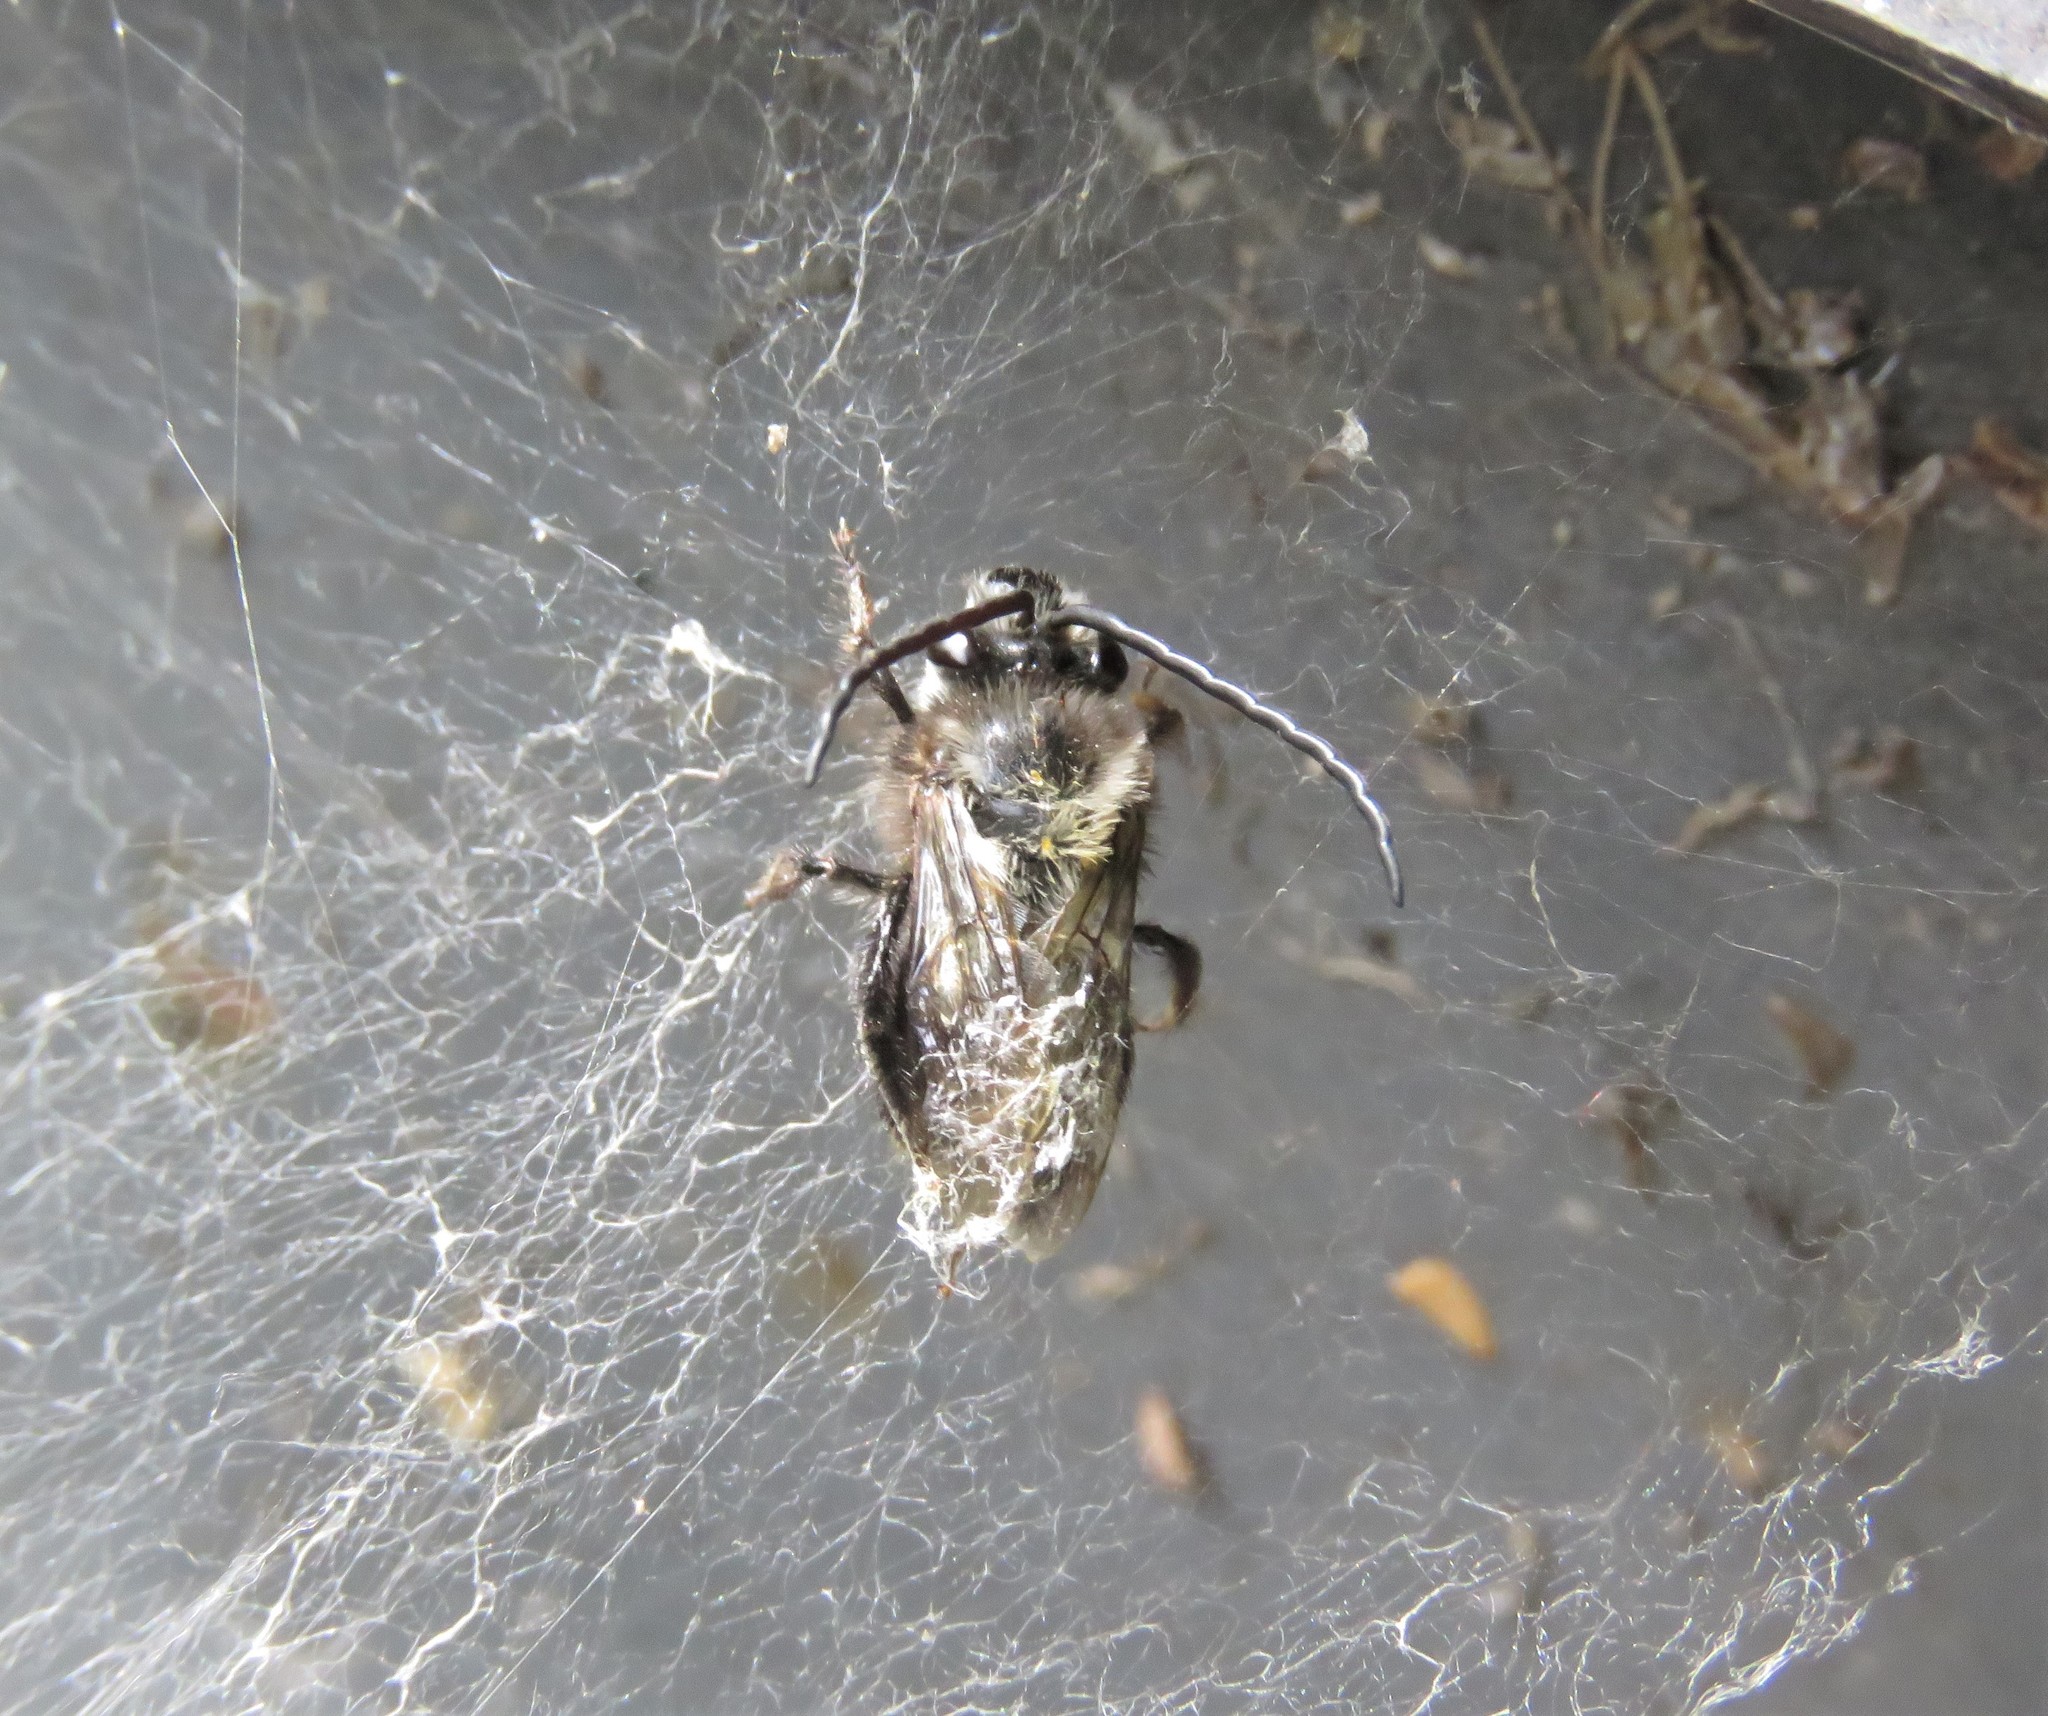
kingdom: Animalia
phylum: Arthropoda
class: Insecta
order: Hymenoptera
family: Apidae
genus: Thygater
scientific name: Thygater aethiops
